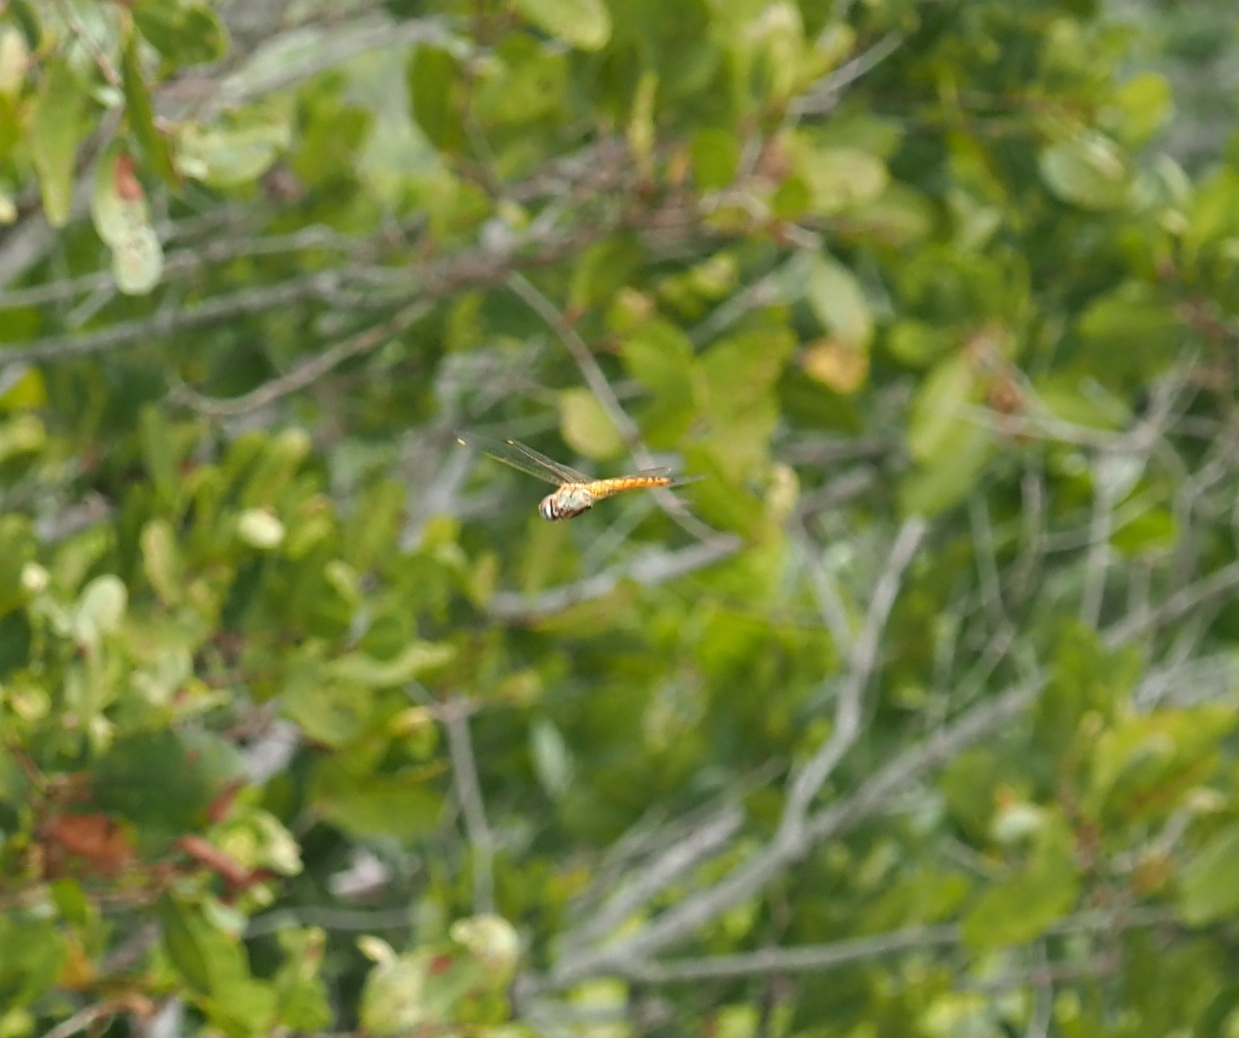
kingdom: Animalia
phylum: Arthropoda
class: Insecta
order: Odonata
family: Libellulidae
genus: Pantala
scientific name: Pantala flavescens
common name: Wandering glider
